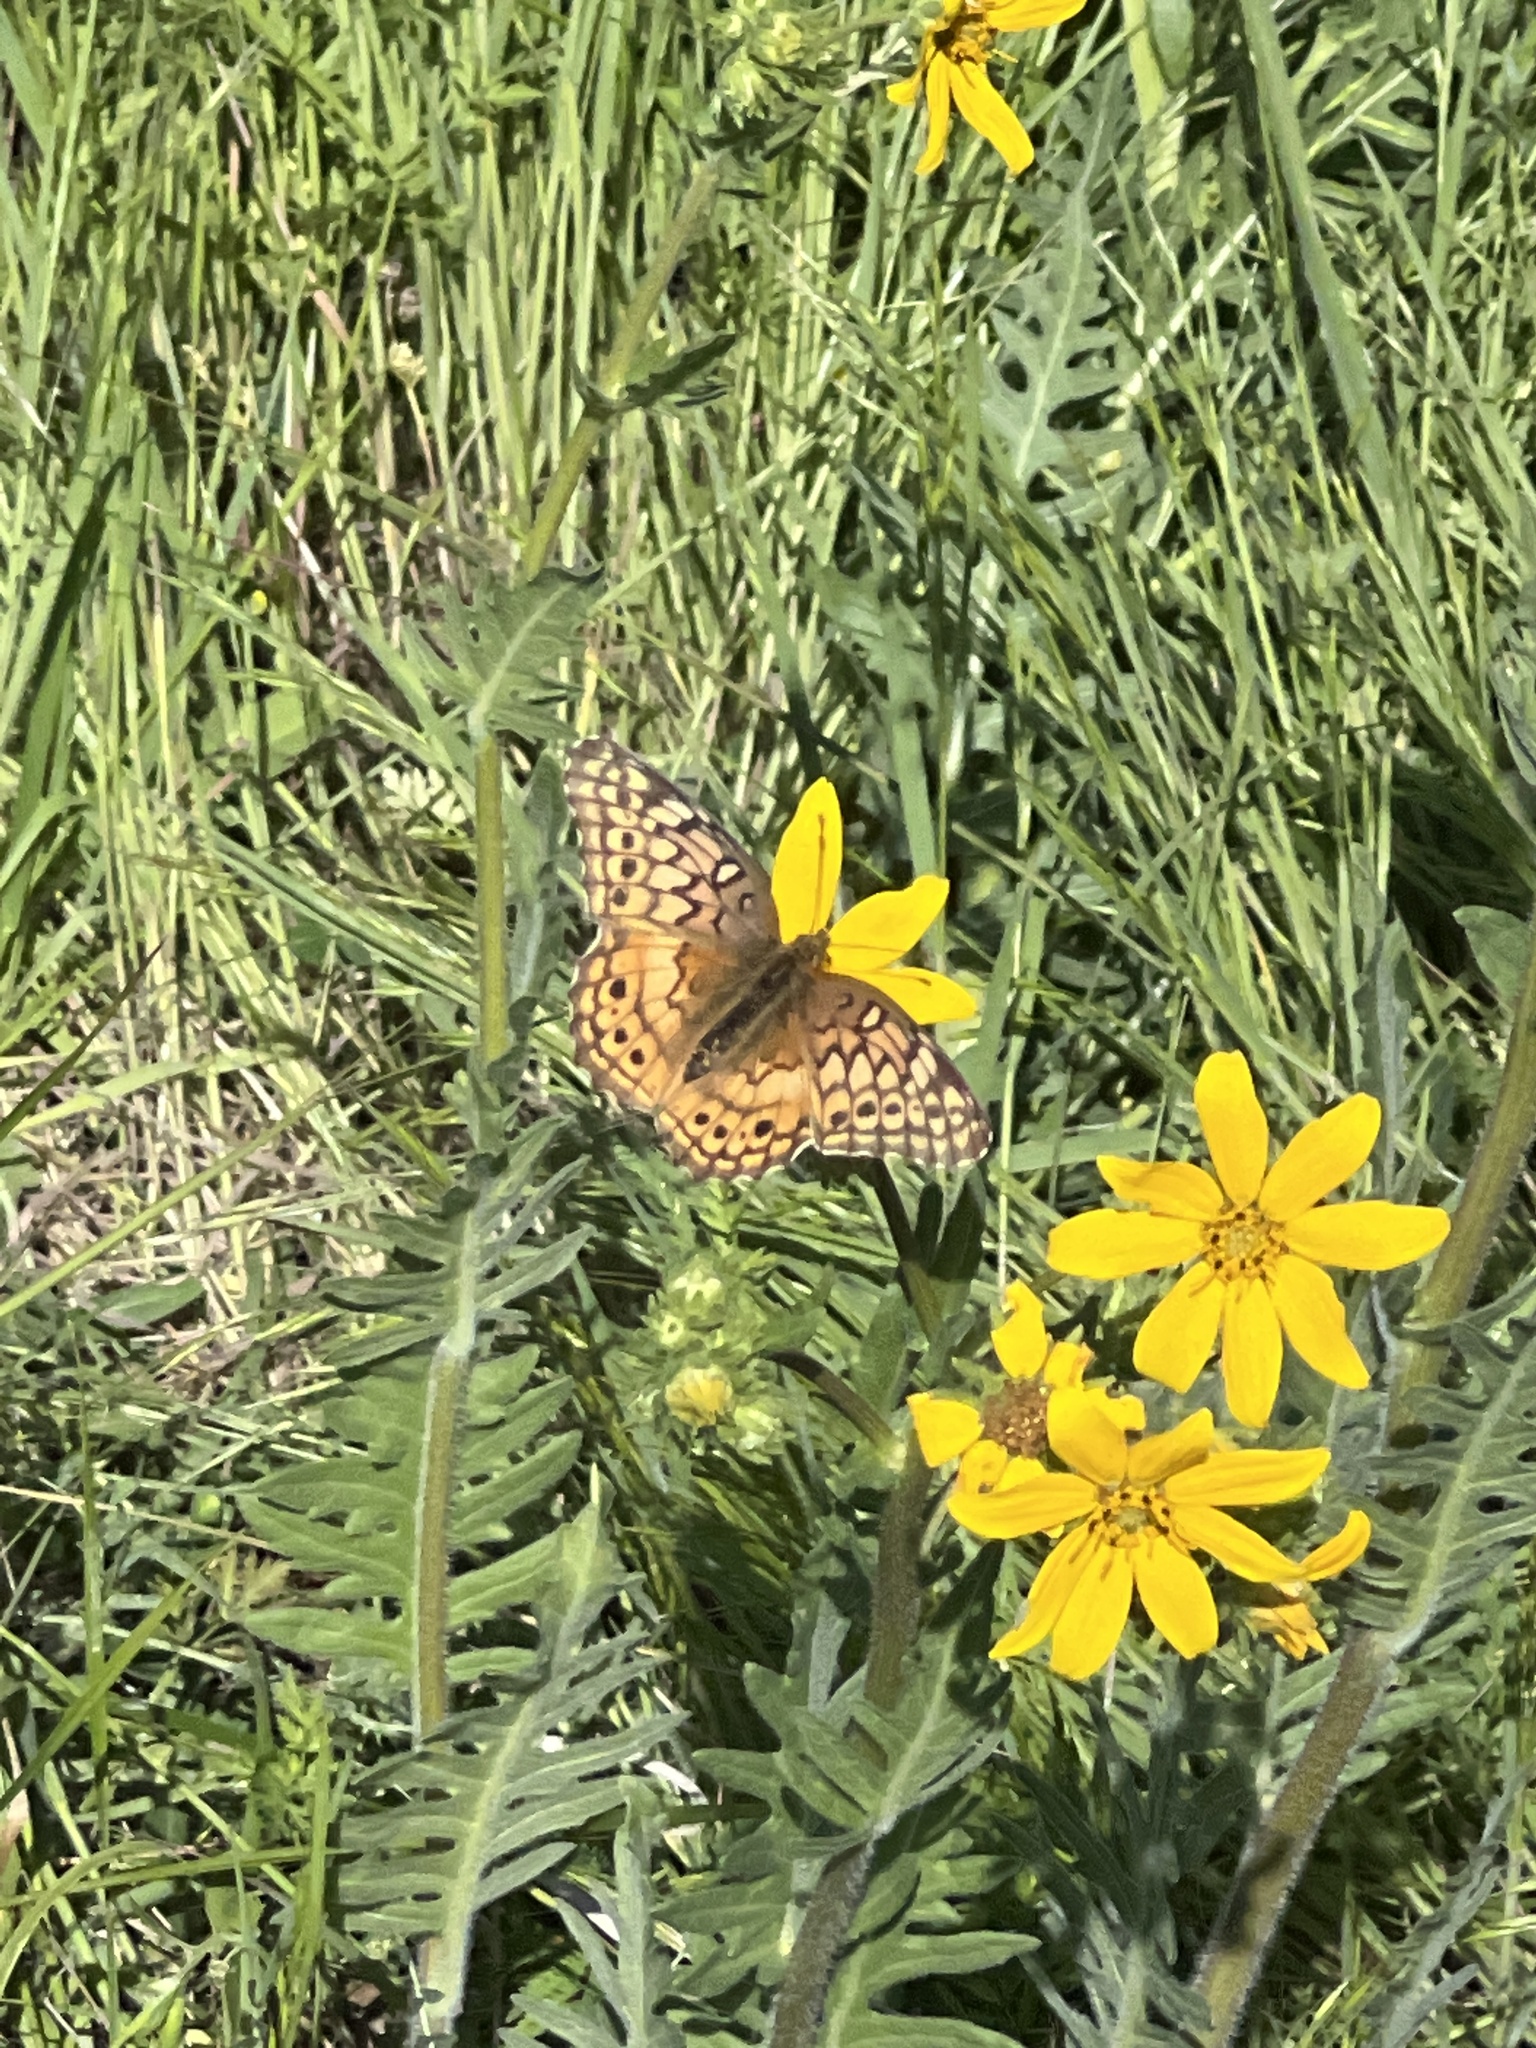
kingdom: Animalia
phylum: Arthropoda
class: Insecta
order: Lepidoptera
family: Nymphalidae
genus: Euptoieta
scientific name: Euptoieta claudia
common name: Variegated fritillary
